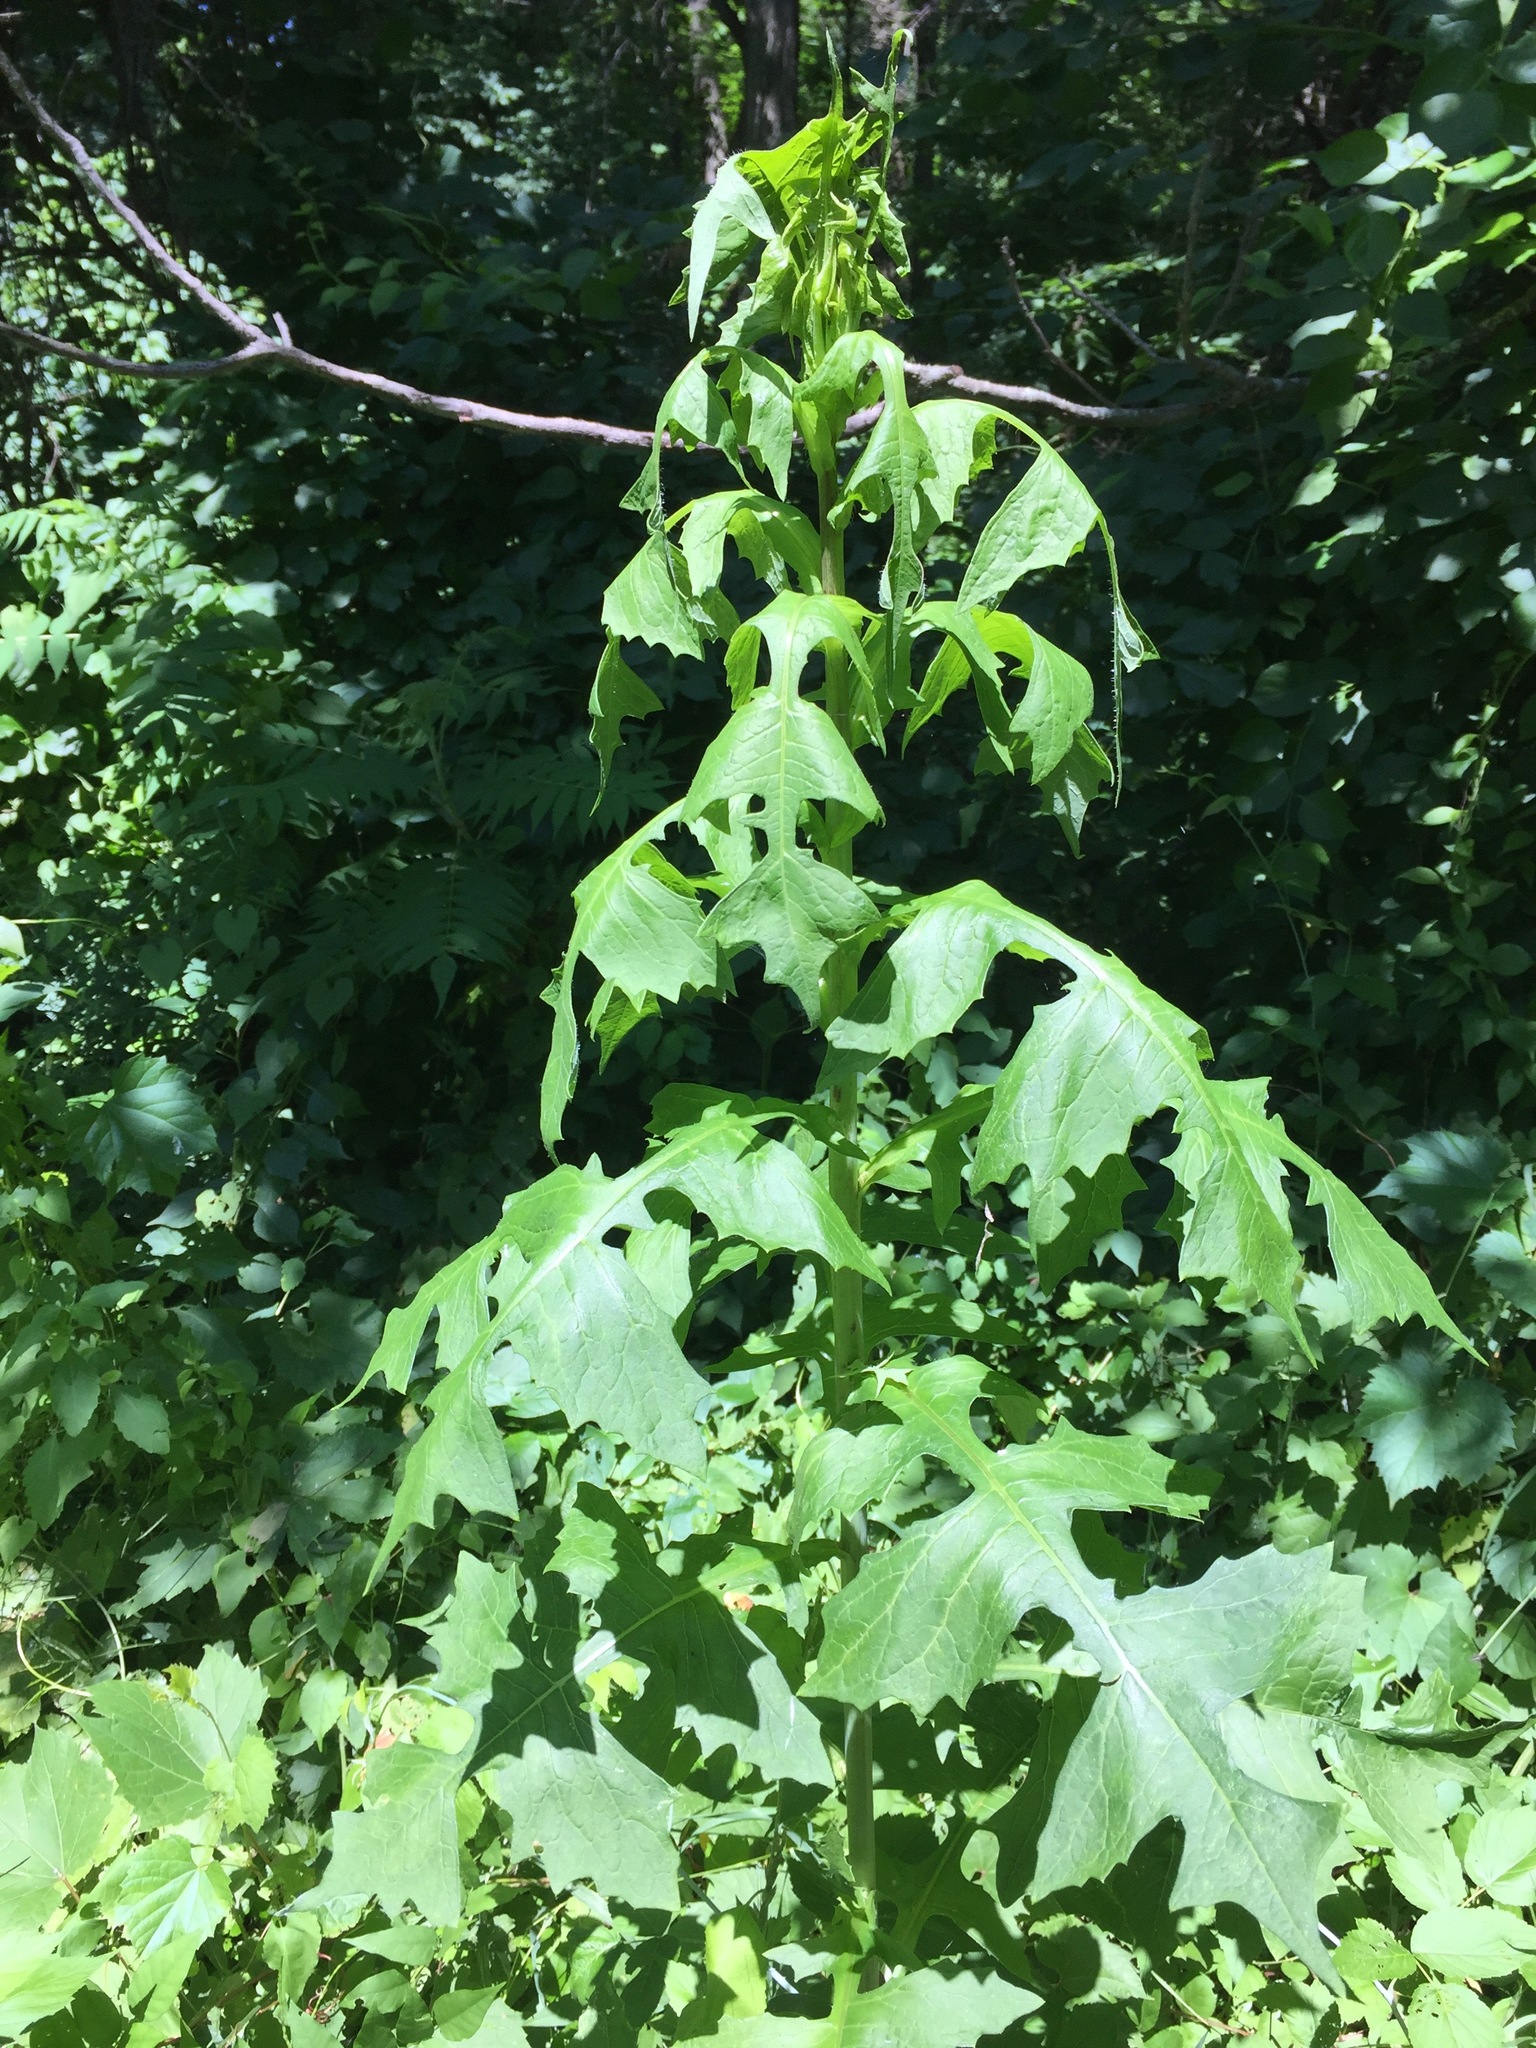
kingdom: Plantae
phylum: Tracheophyta
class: Magnoliopsida
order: Asterales
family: Asteraceae
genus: Lactuca
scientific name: Lactuca biennis
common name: Blue wood lettuce
